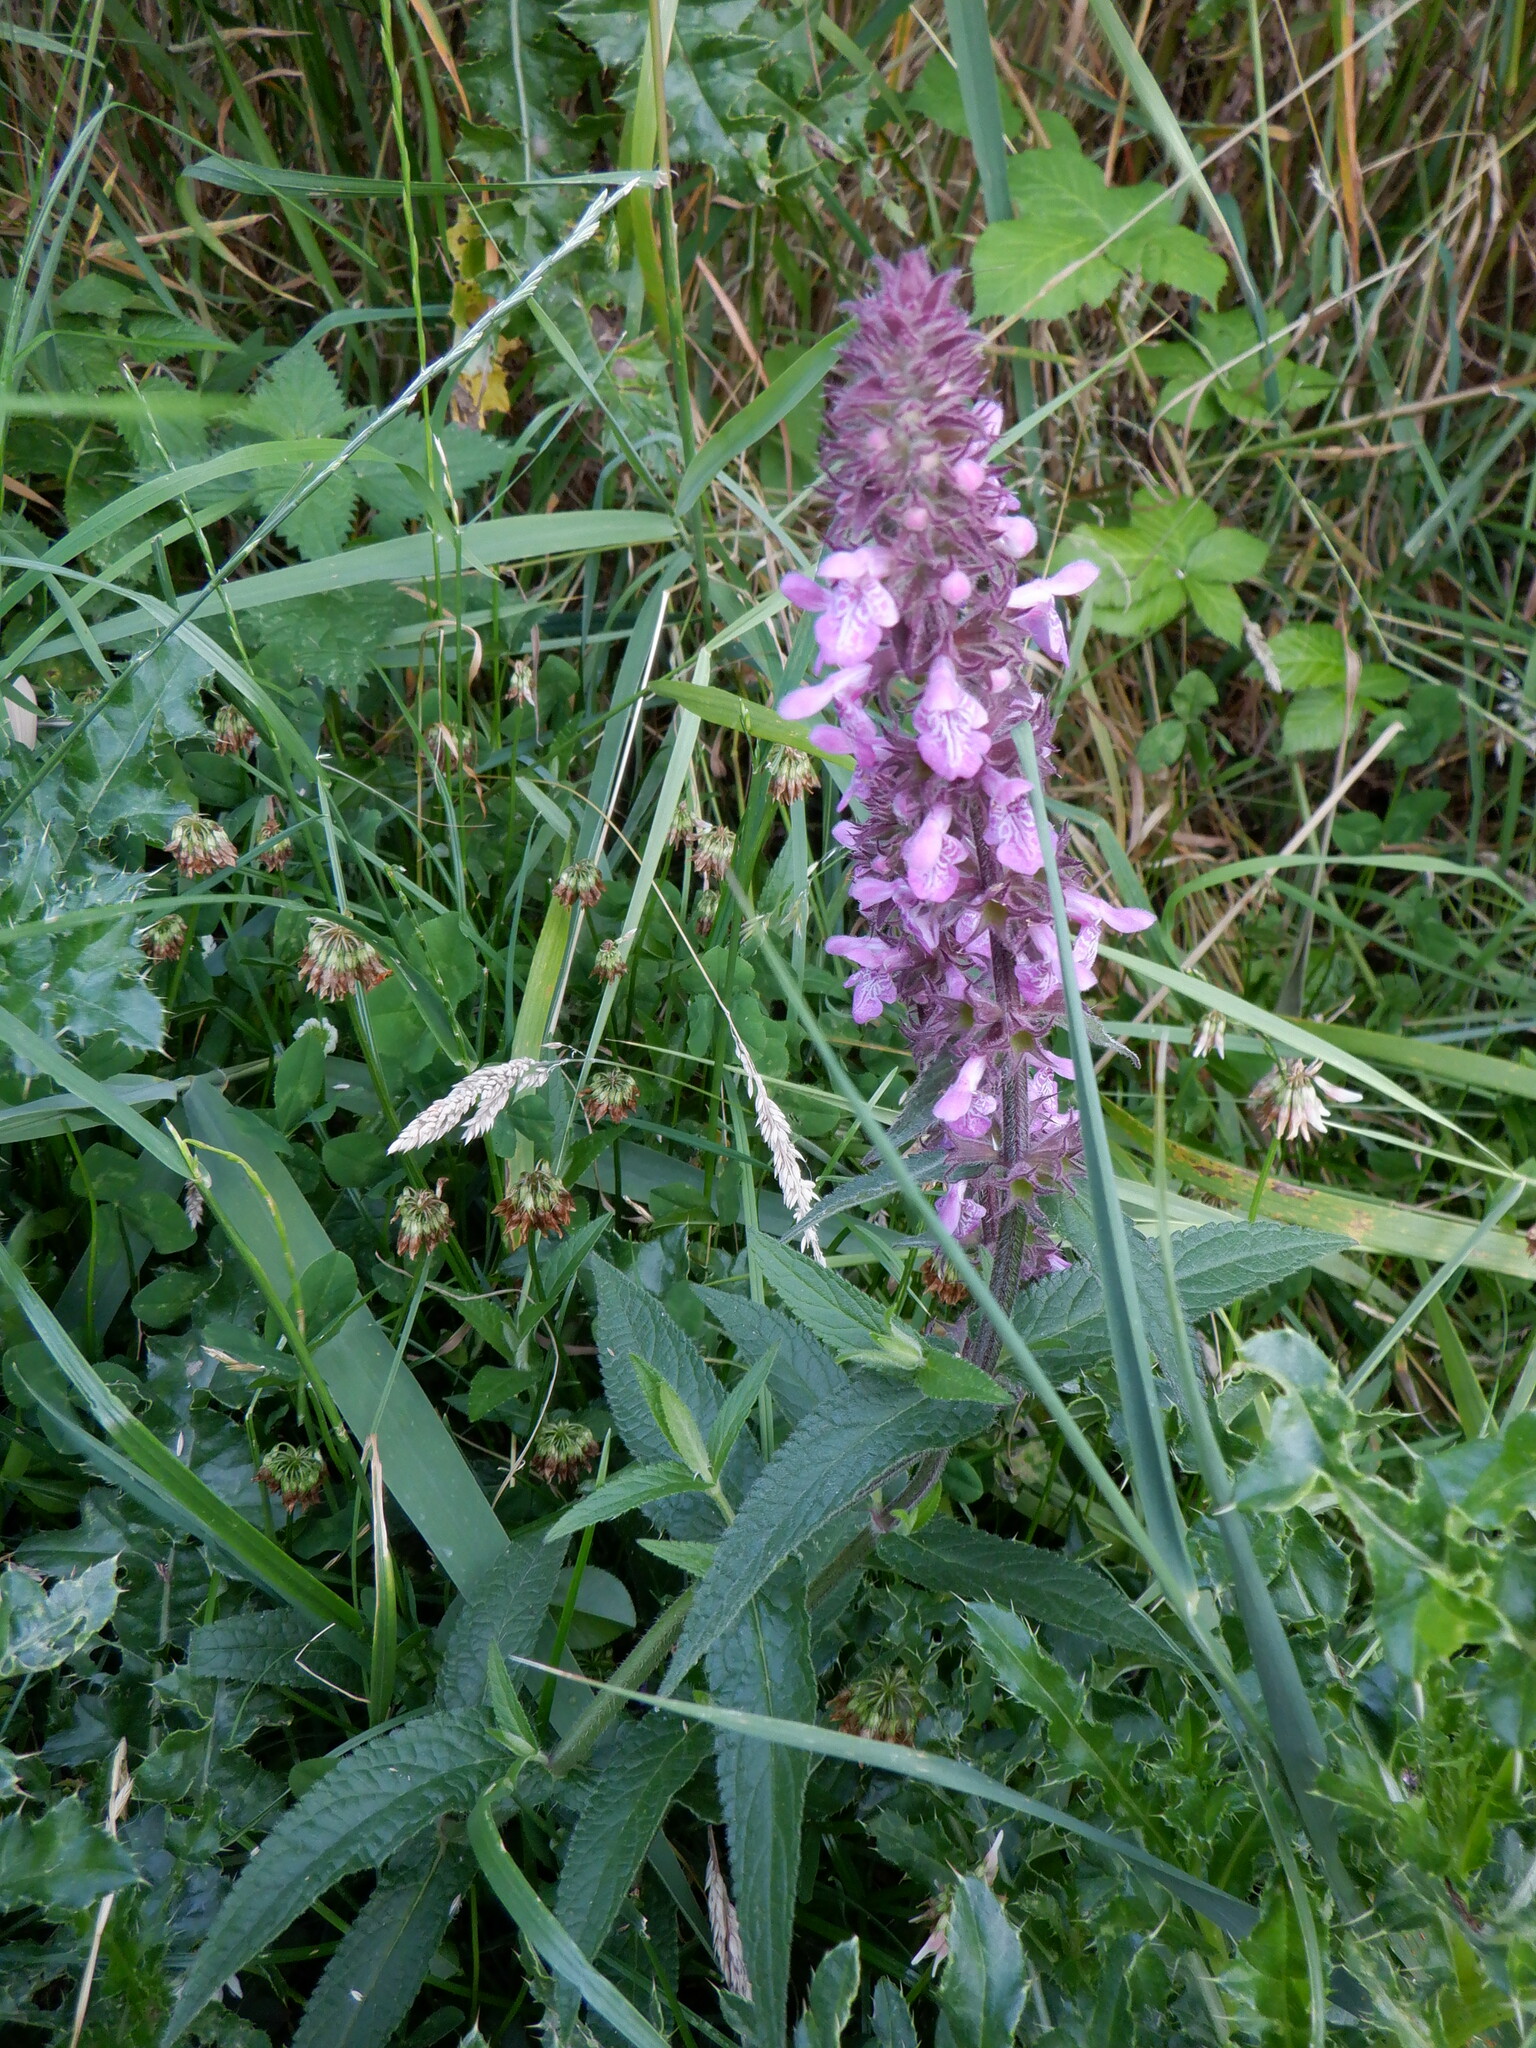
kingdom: Plantae
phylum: Tracheophyta
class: Magnoliopsida
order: Lamiales
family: Lamiaceae
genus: Stachys
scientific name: Stachys palustris
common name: Marsh woundwort
